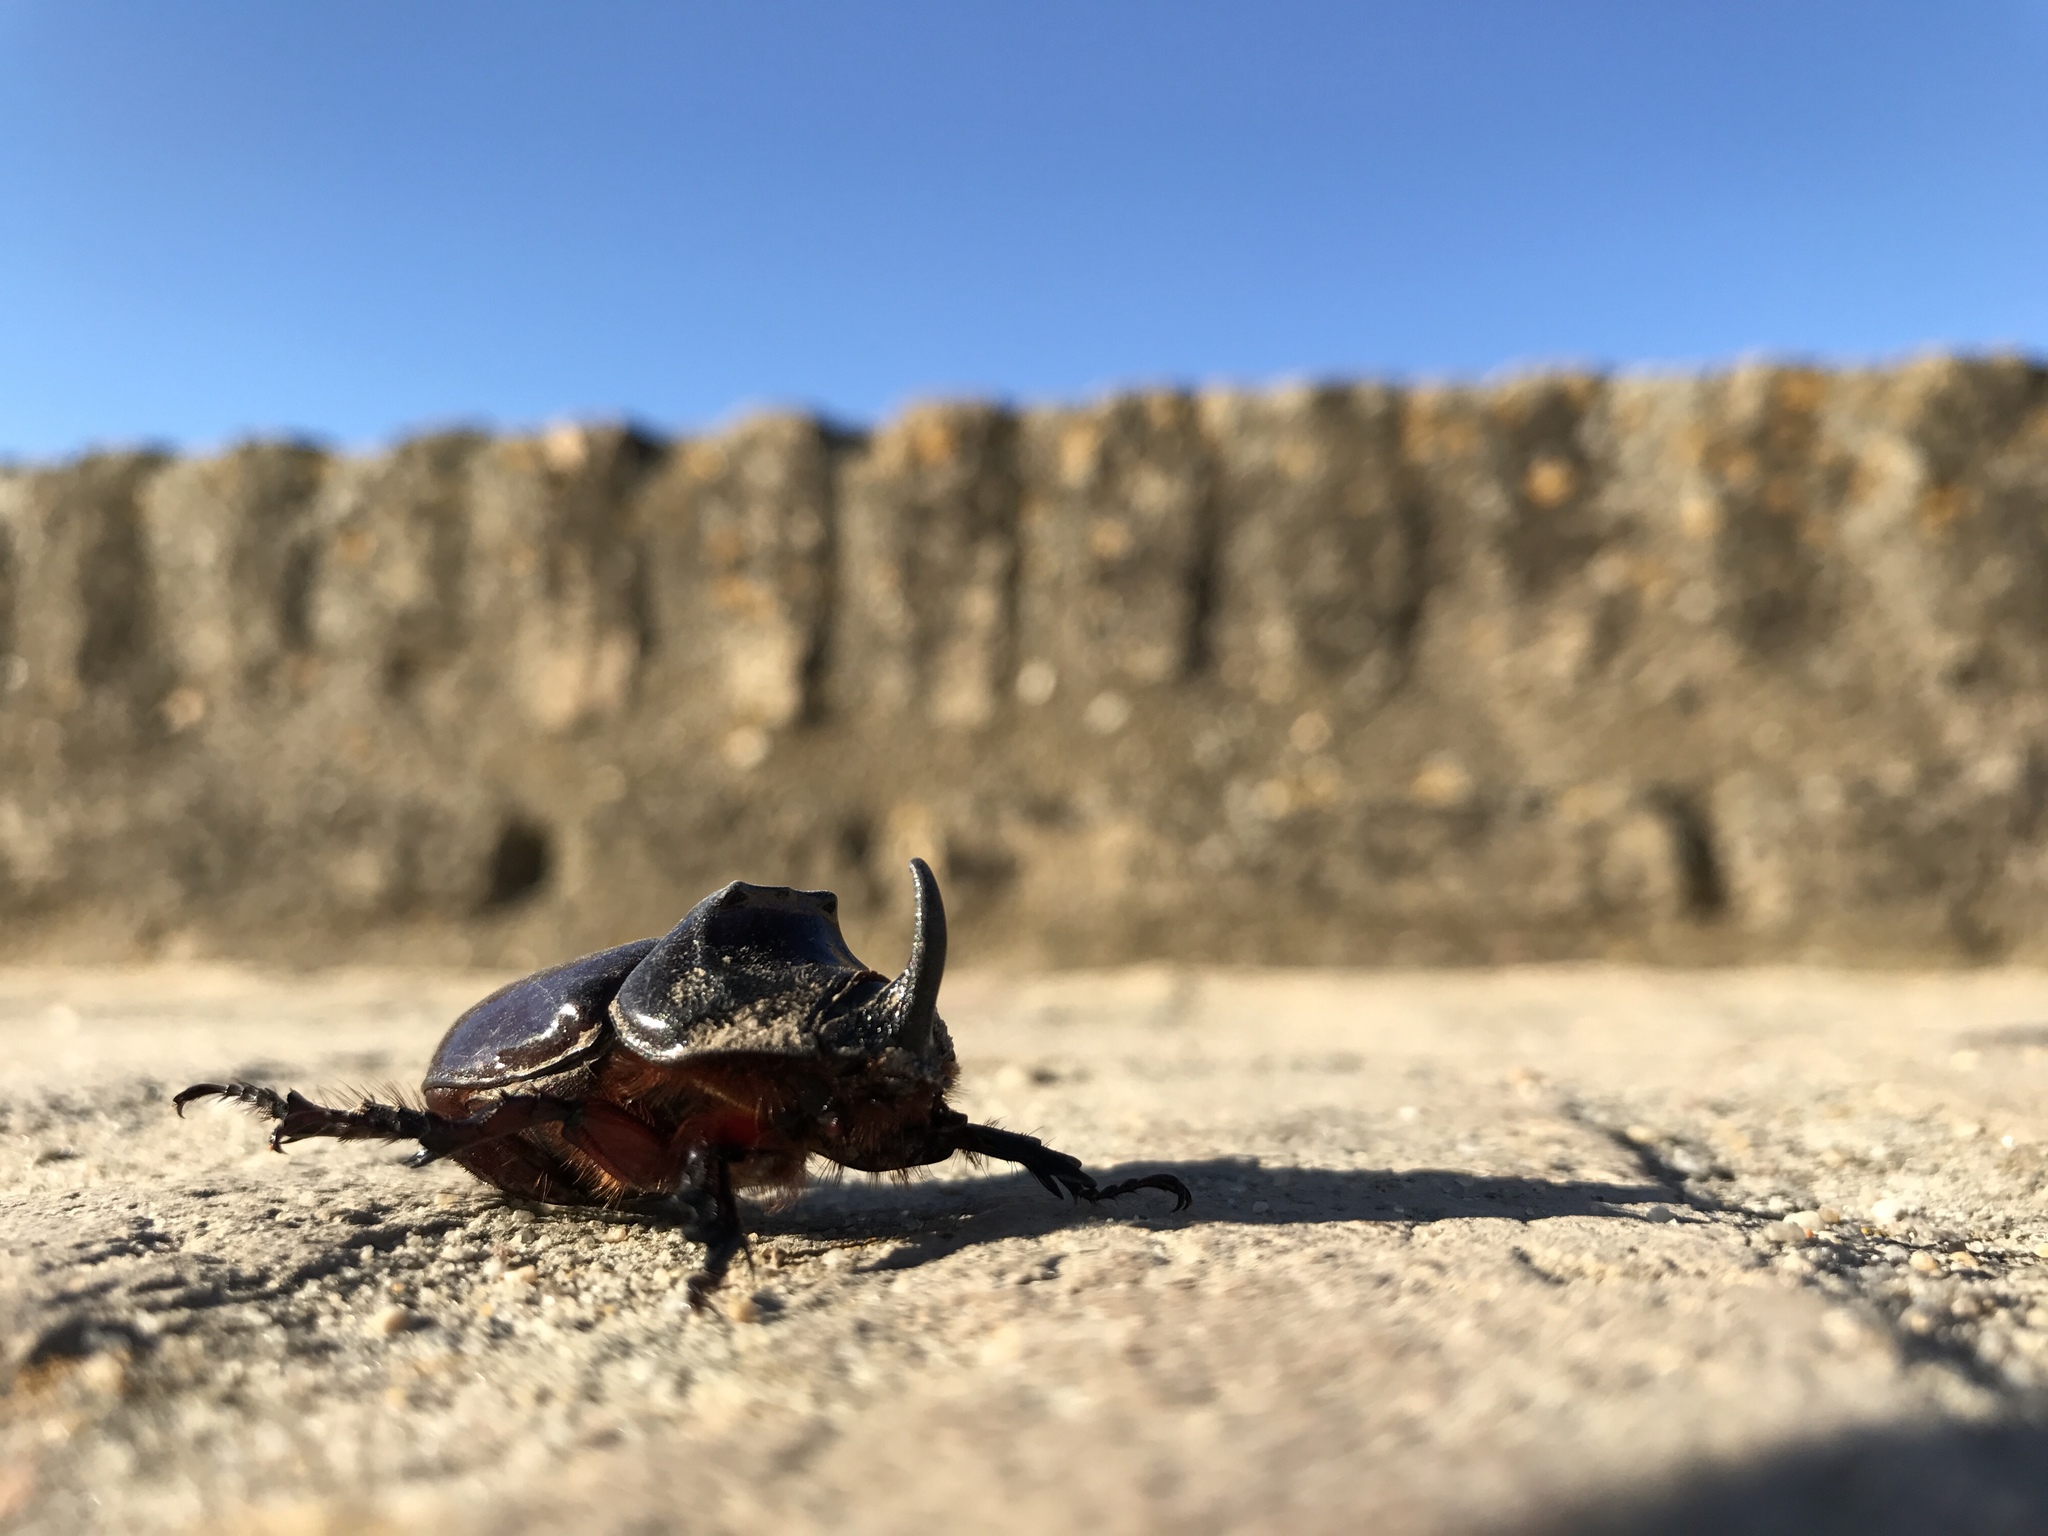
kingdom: Animalia
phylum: Arthropoda
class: Insecta
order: Coleoptera
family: Scarabaeidae
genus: Oryctes
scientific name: Oryctes nasicornis
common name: European rhinoceros beetle
